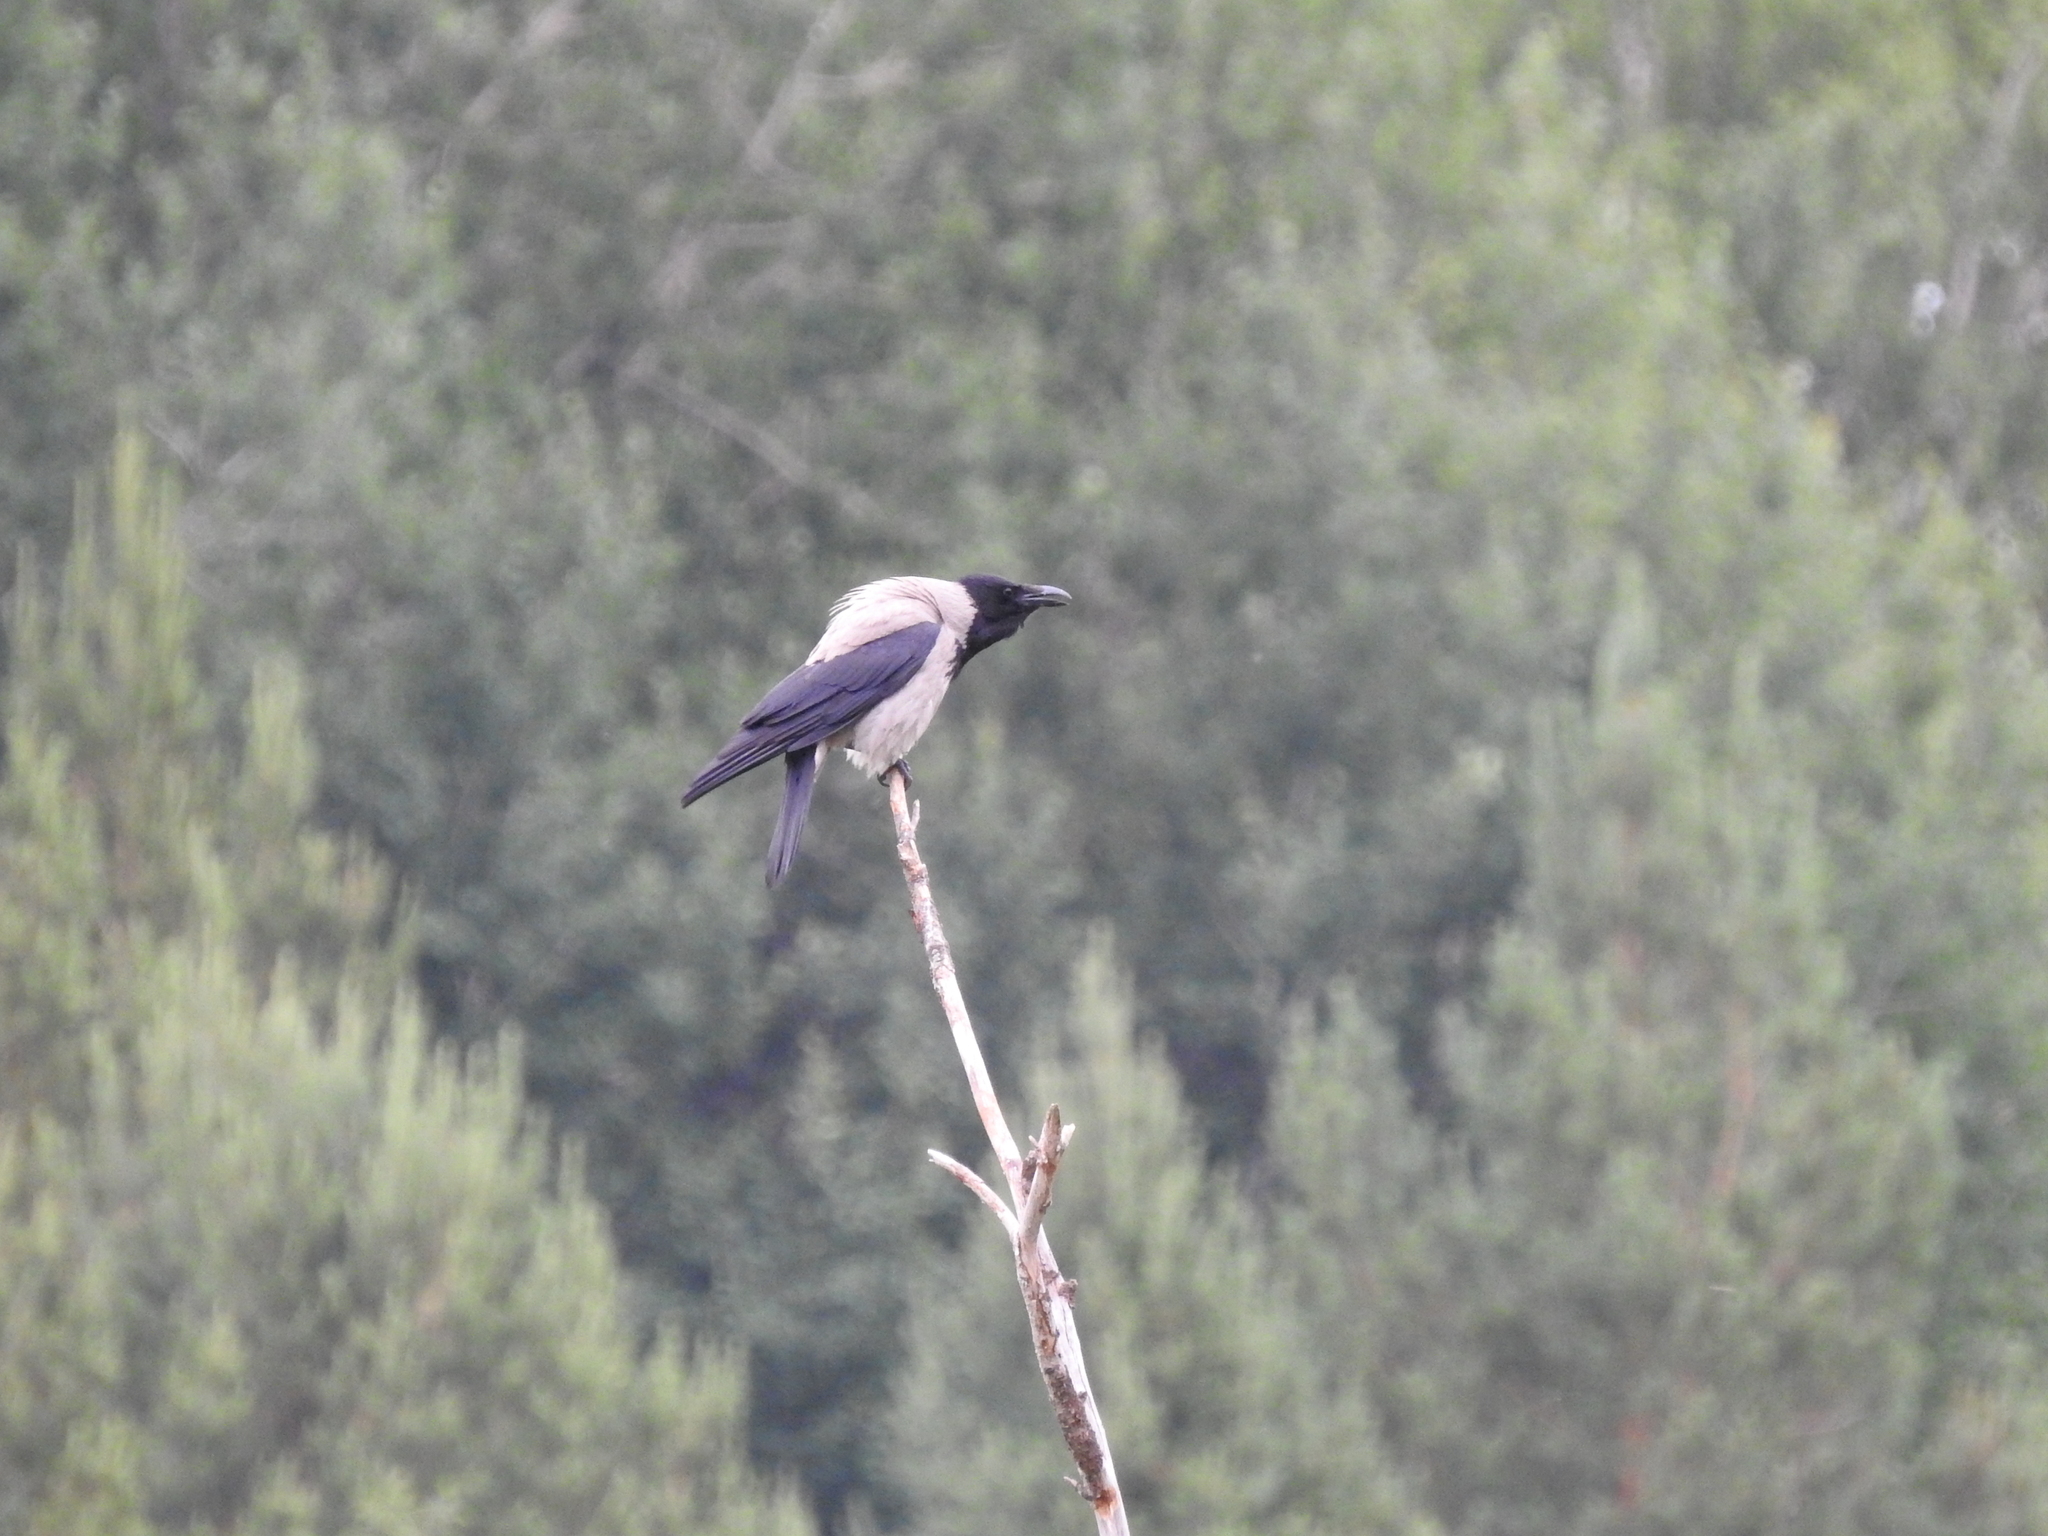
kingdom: Animalia
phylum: Chordata
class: Aves
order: Passeriformes
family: Corvidae
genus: Corvus
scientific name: Corvus cornix
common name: Hooded crow
